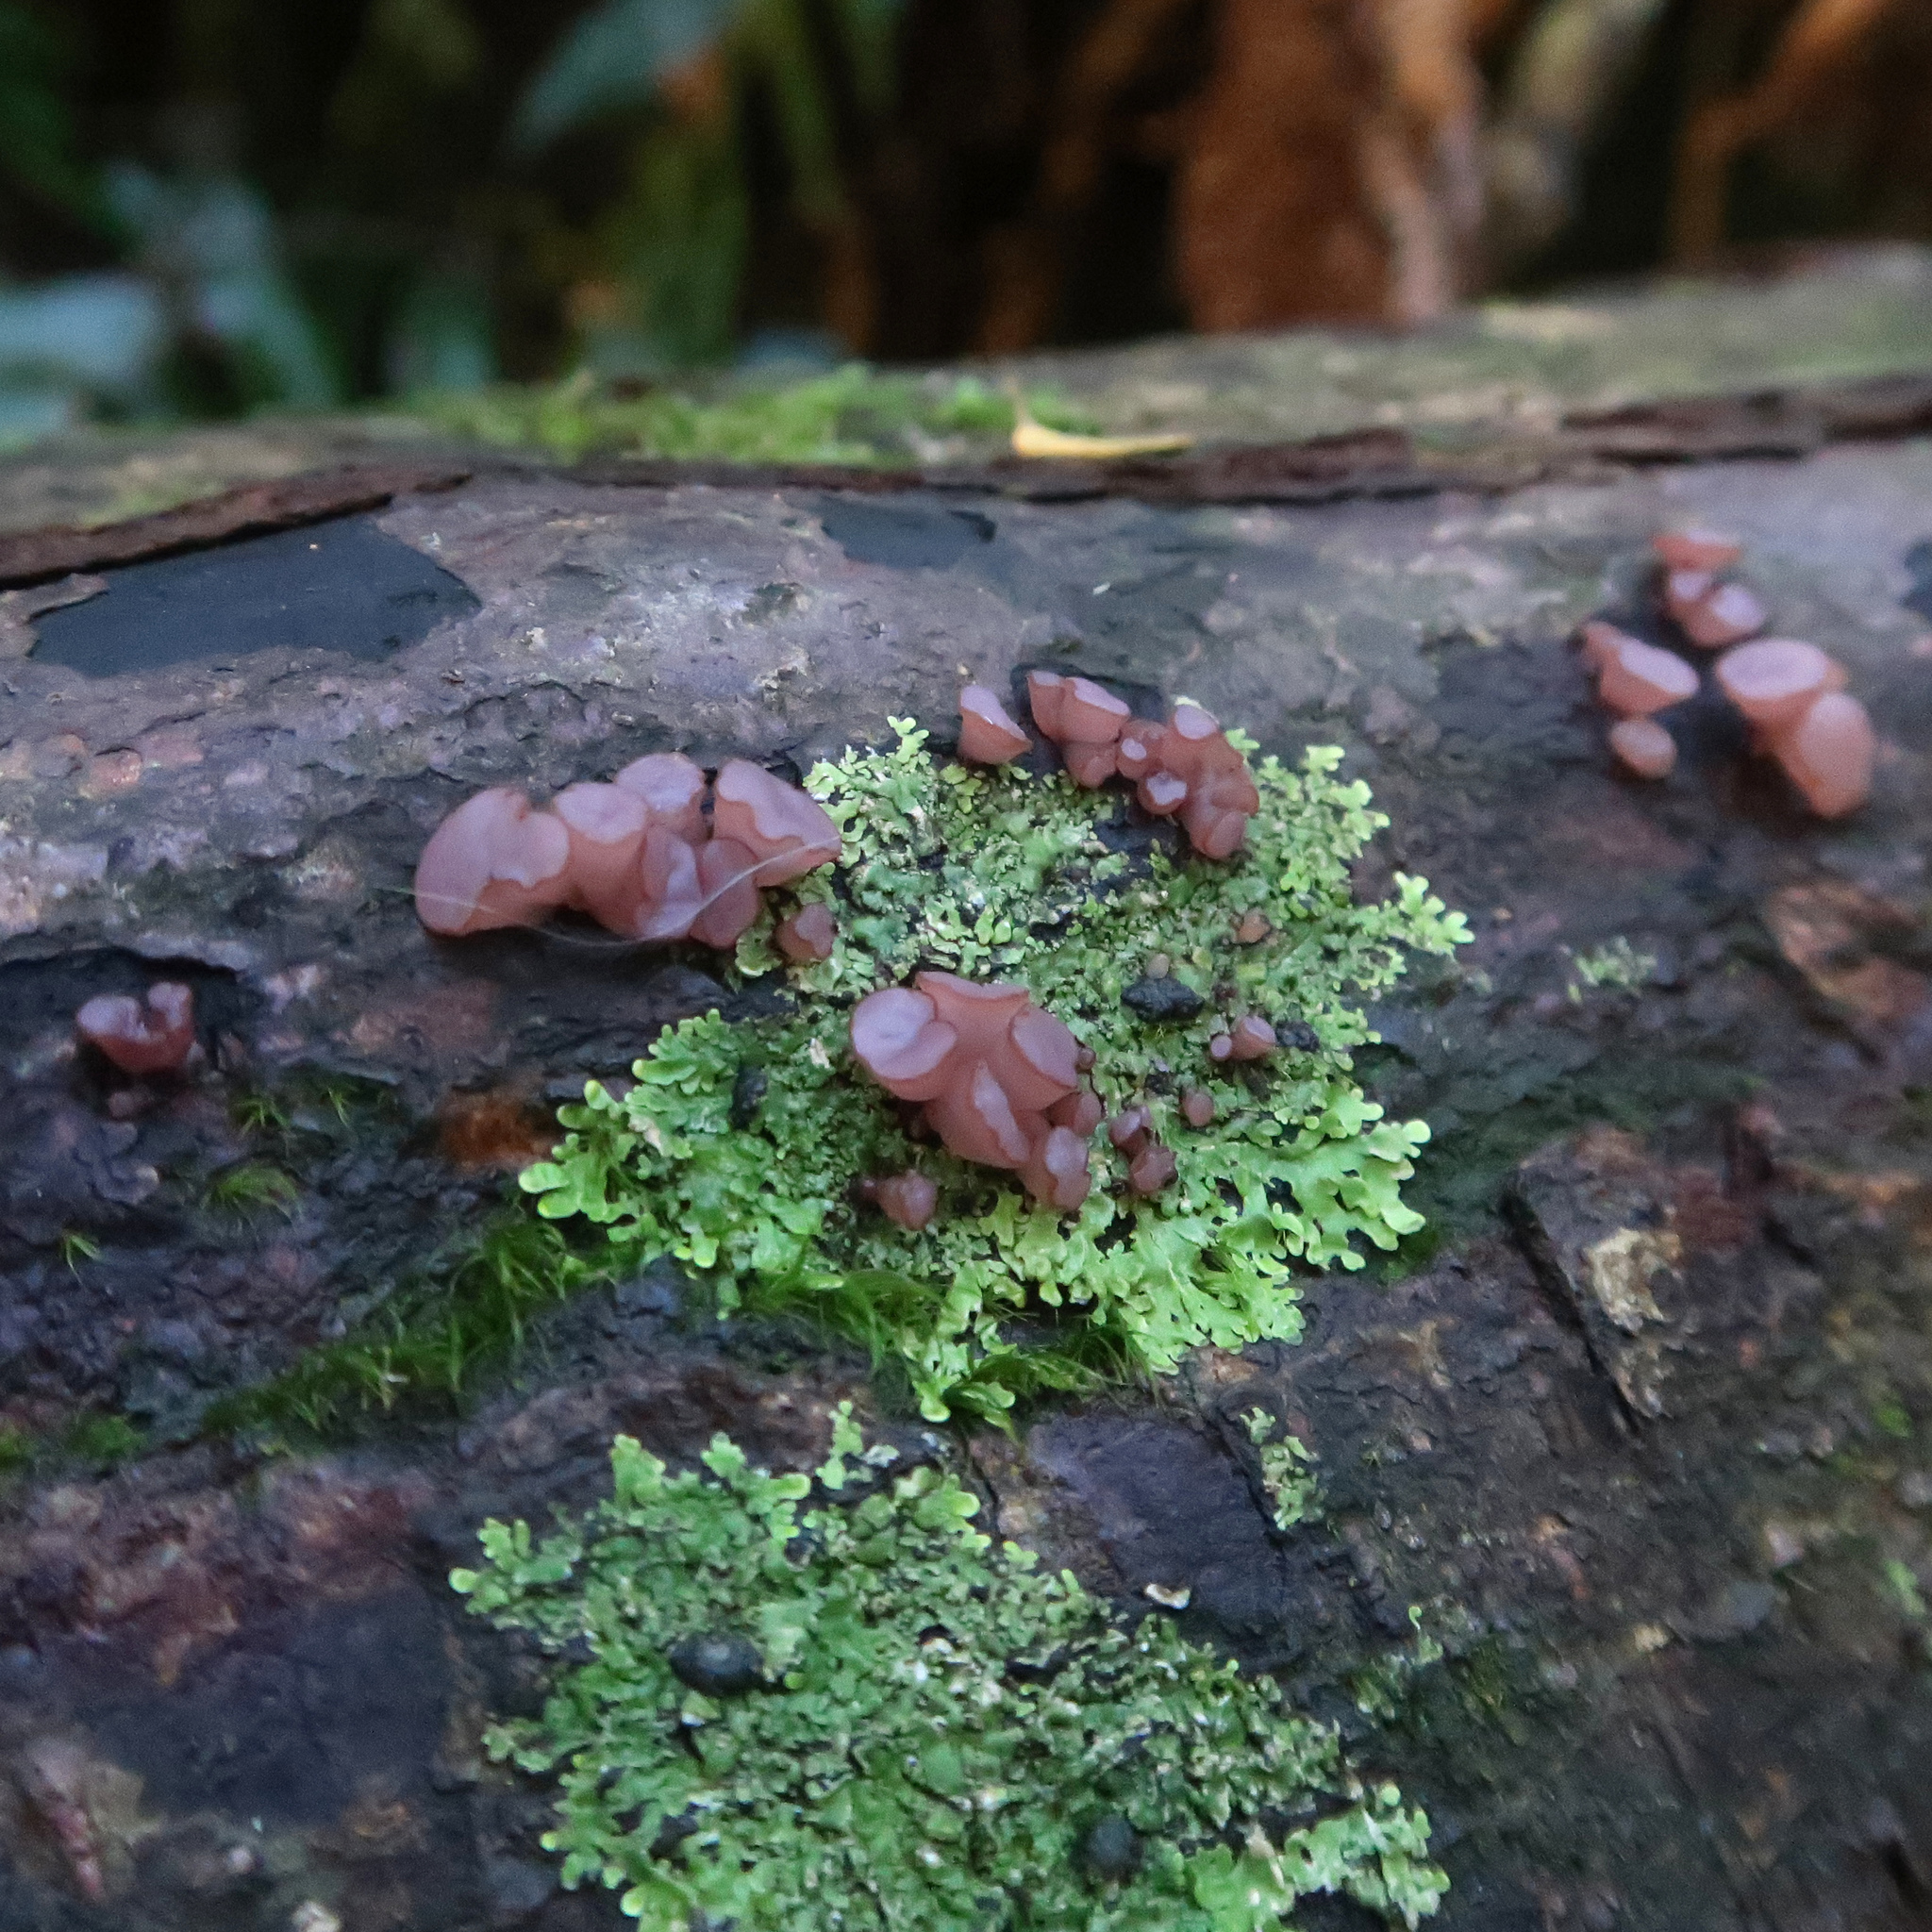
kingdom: Fungi
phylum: Ascomycota
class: Leotiomycetes
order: Helotiales
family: Gelatinodiscaceae
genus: Ascocoryne
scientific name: Ascocoryne sarcoides
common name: Purple jellydisc
